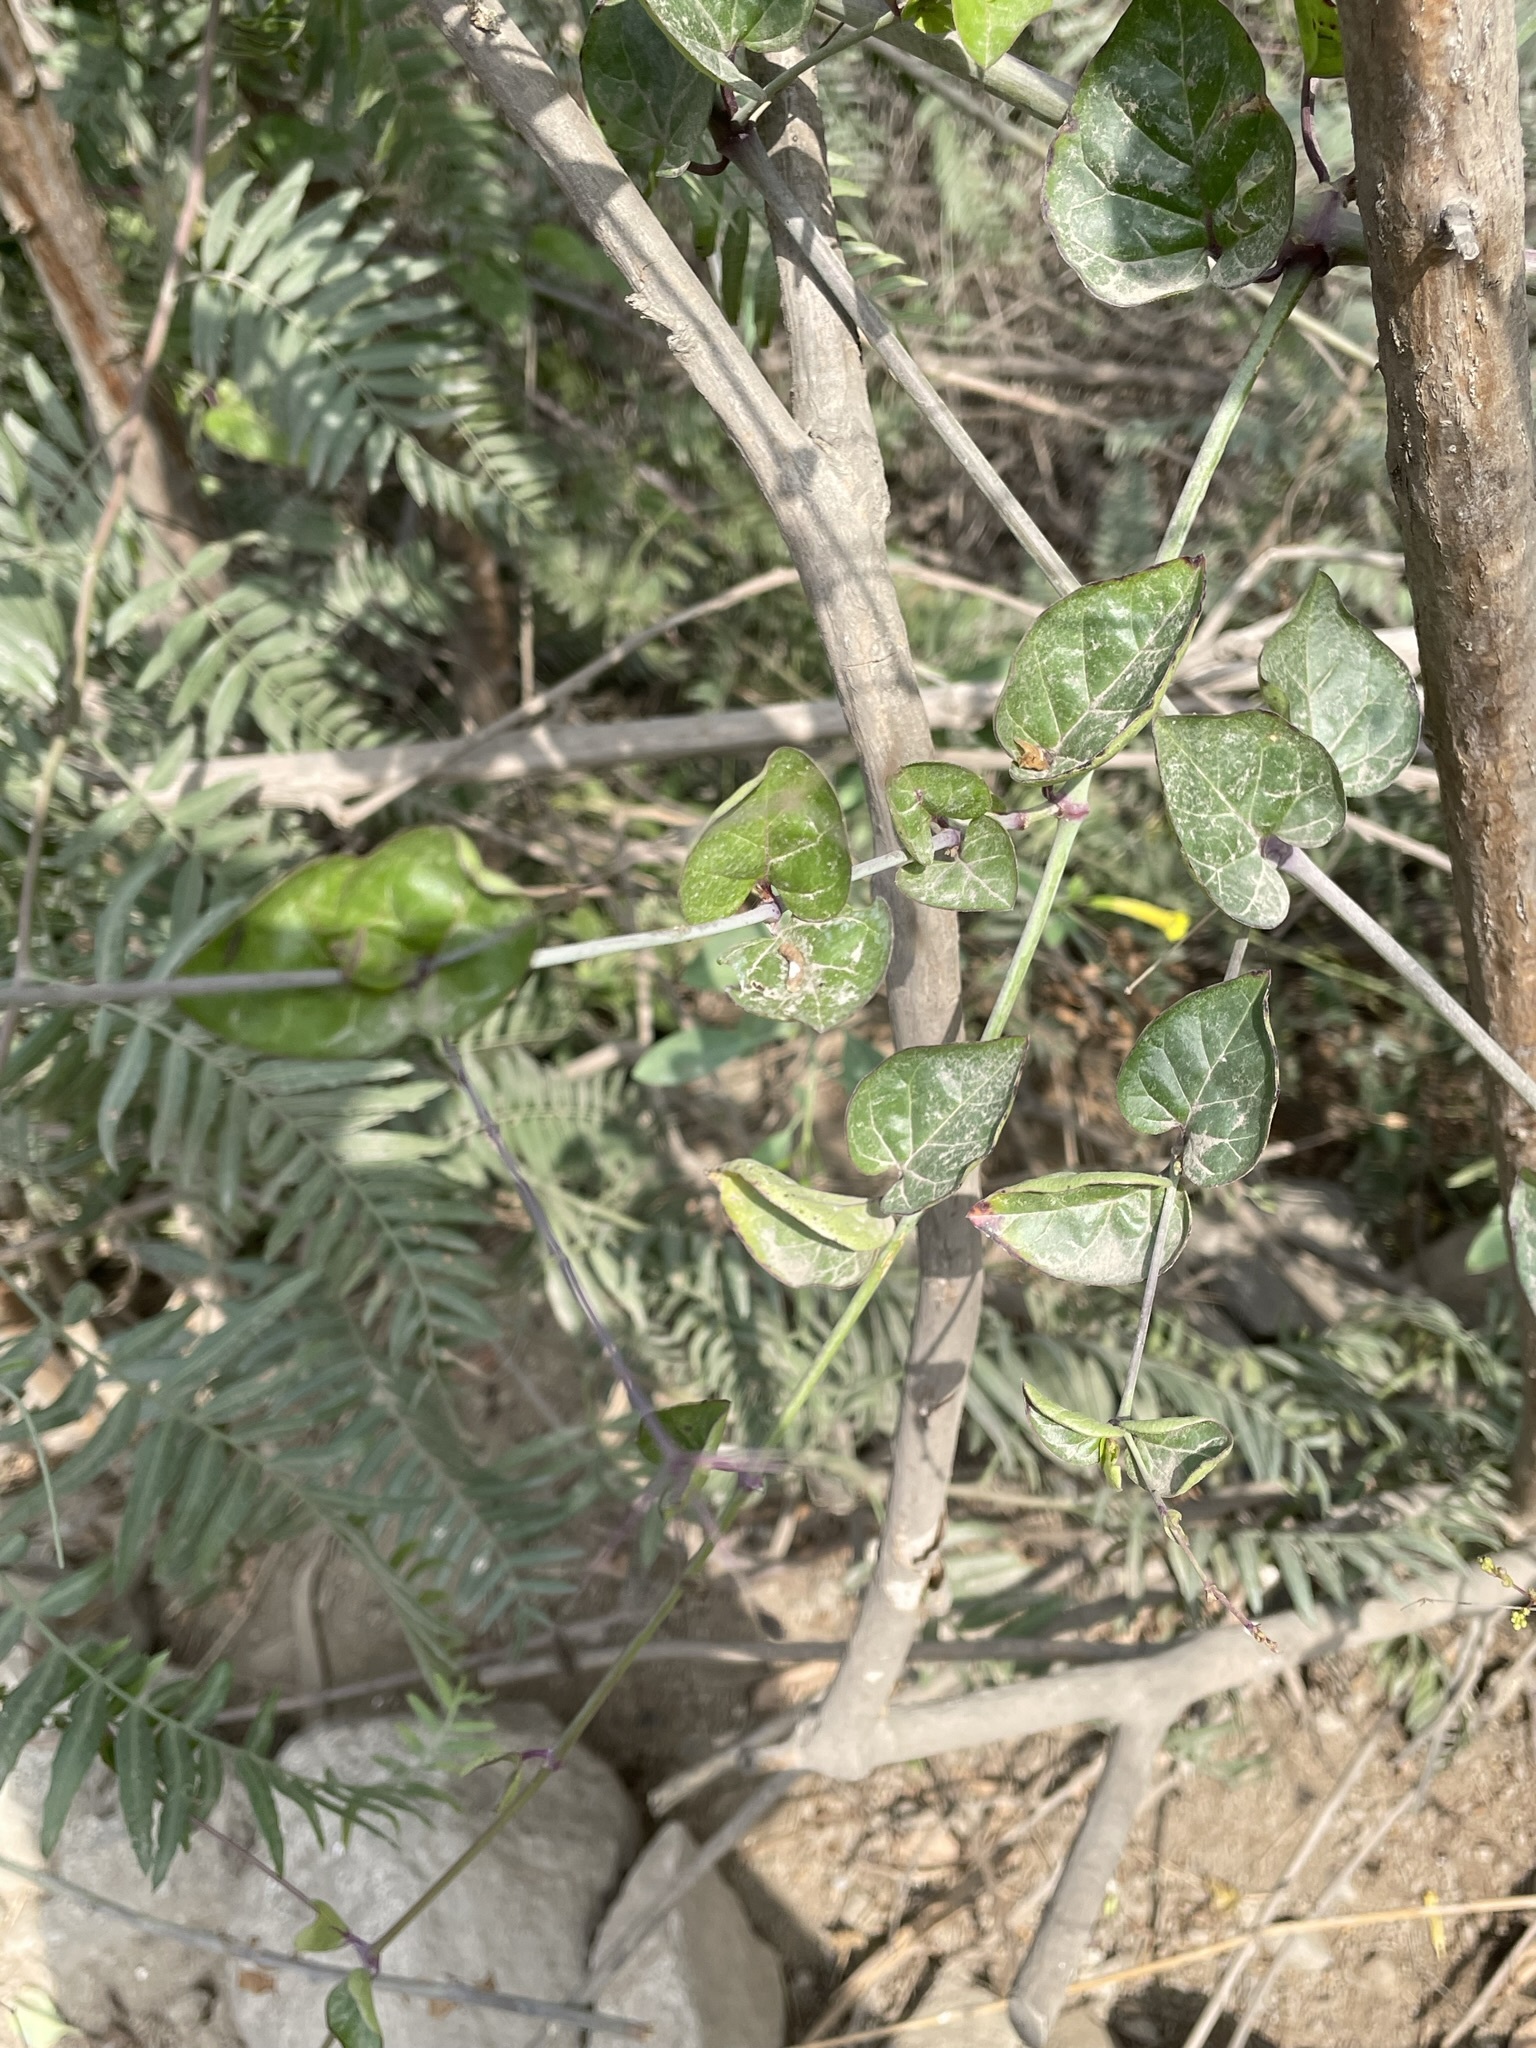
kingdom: Plantae
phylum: Tracheophyta
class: Magnoliopsida
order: Caryophyllales
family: Nyctaginaceae
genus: Commicarpus
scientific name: Commicarpus tuberosus
